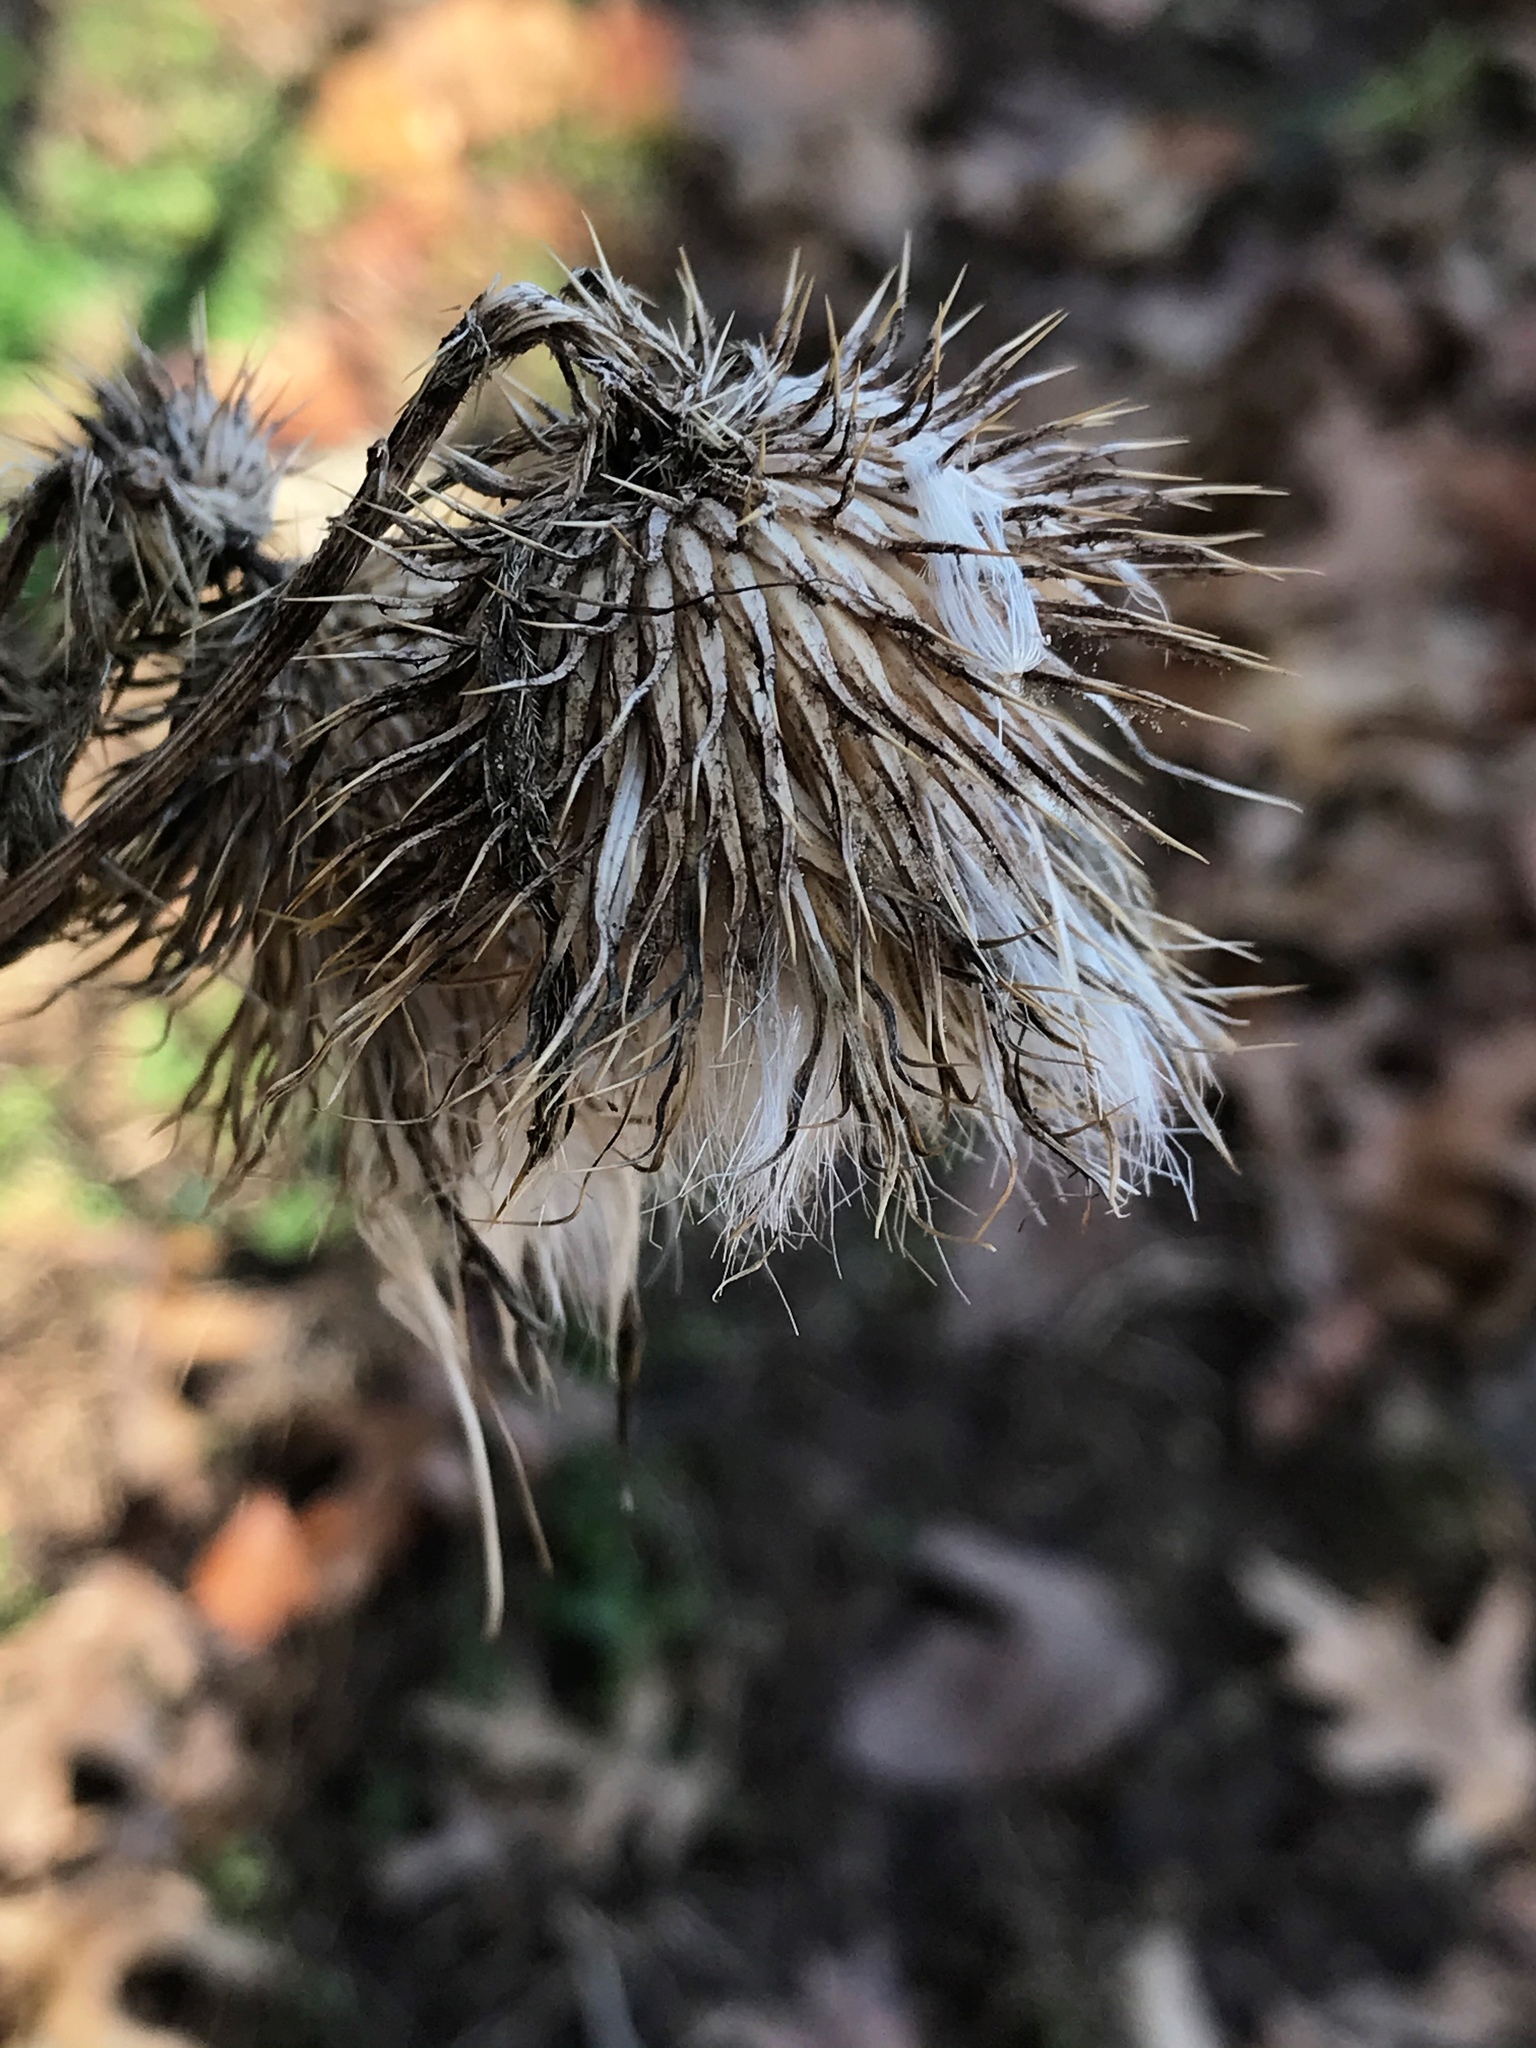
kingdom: Plantae
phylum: Tracheophyta
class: Magnoliopsida
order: Asterales
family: Asteraceae
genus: Cirsium
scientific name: Cirsium vulgare
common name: Bull thistle
